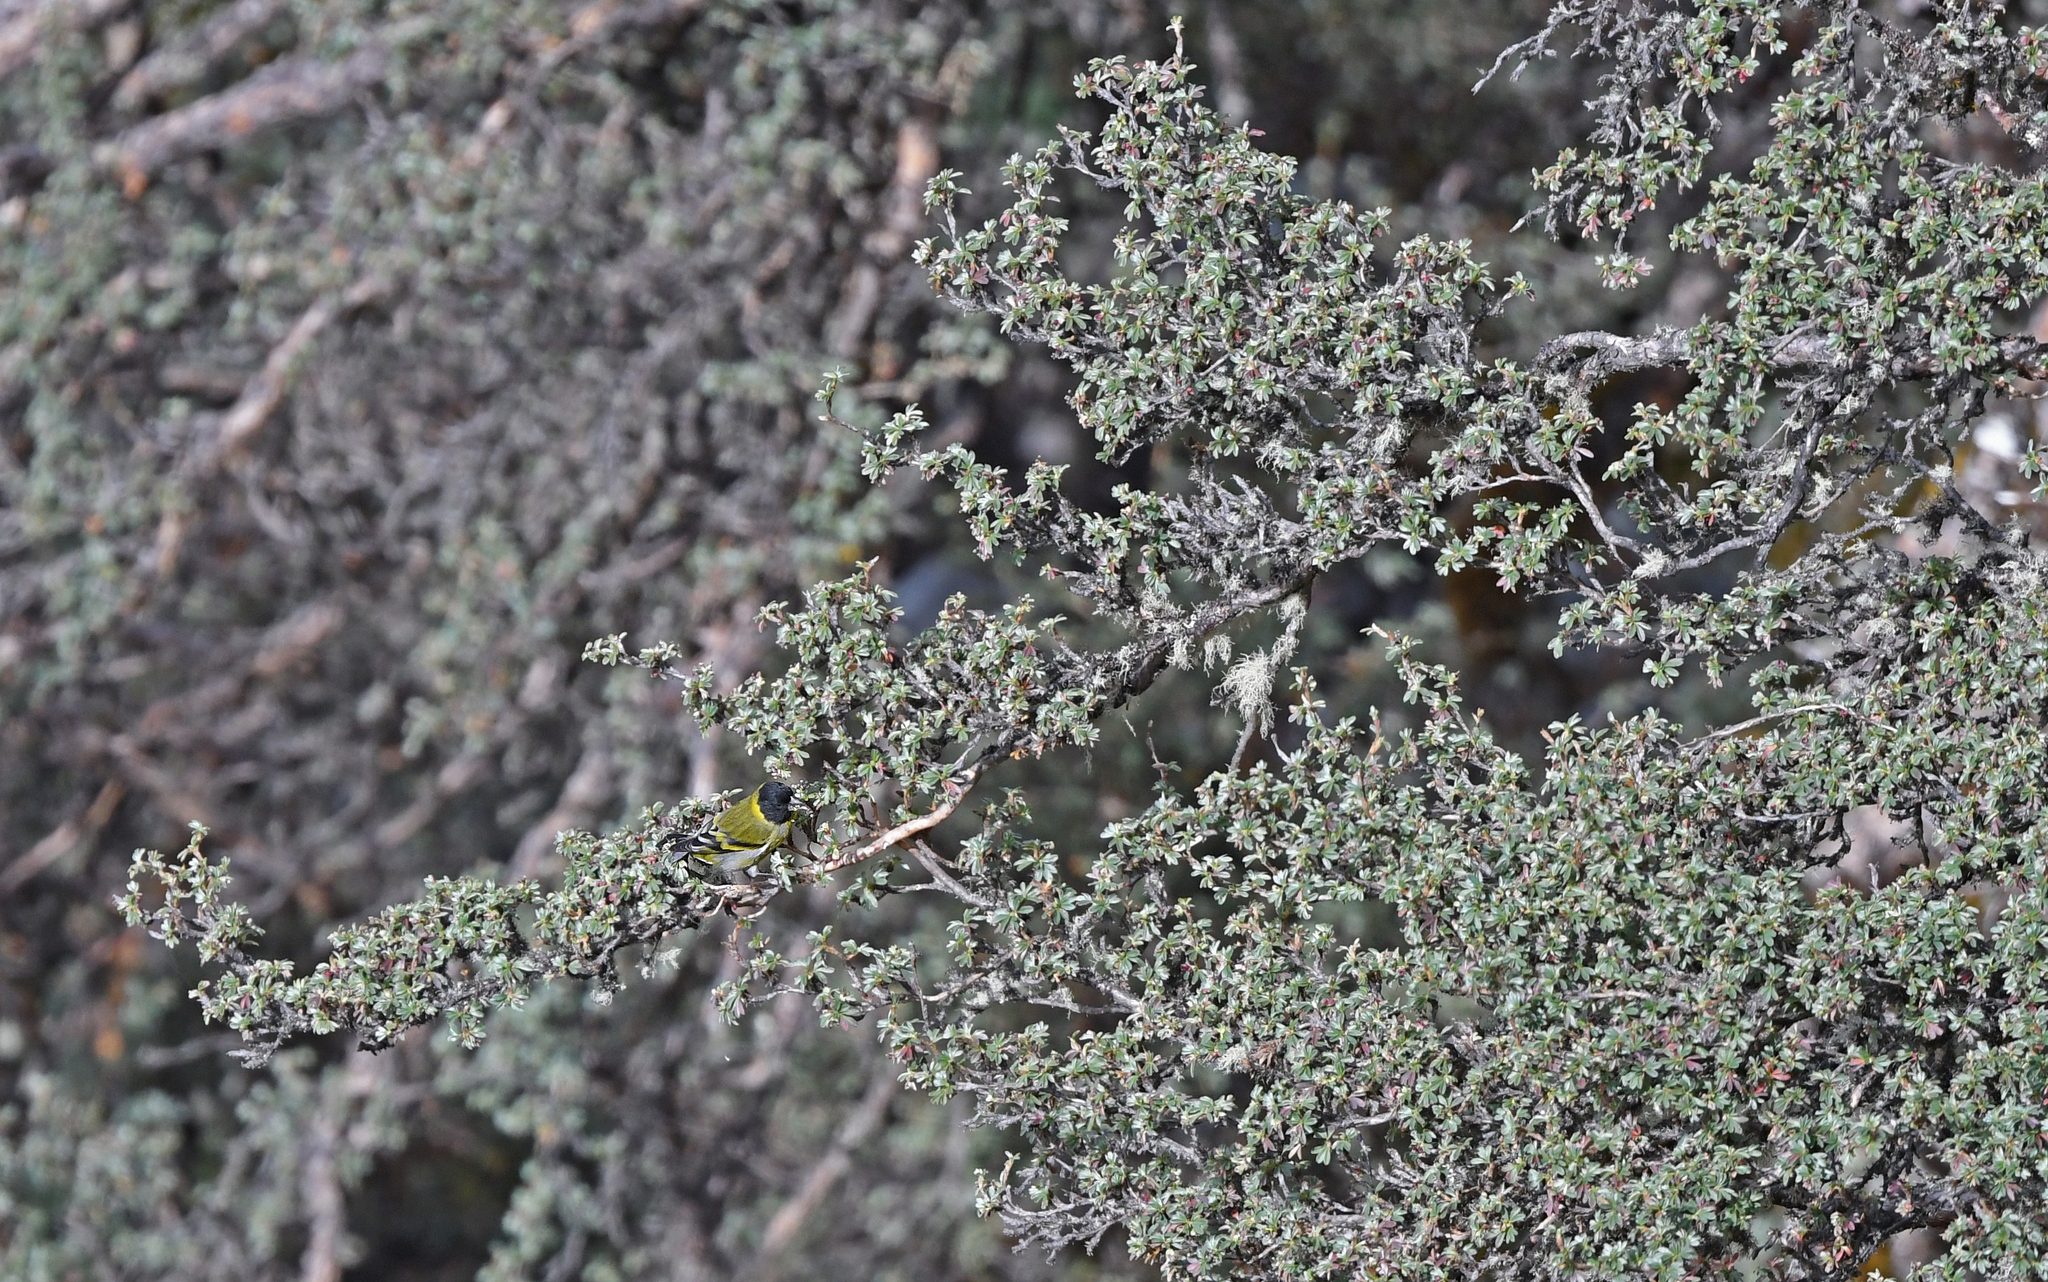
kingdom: Animalia
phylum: Chordata
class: Aves
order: Passeriformes
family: Fringillidae
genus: Spinus
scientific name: Spinus crassirostris
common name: Thick-billed siskin
